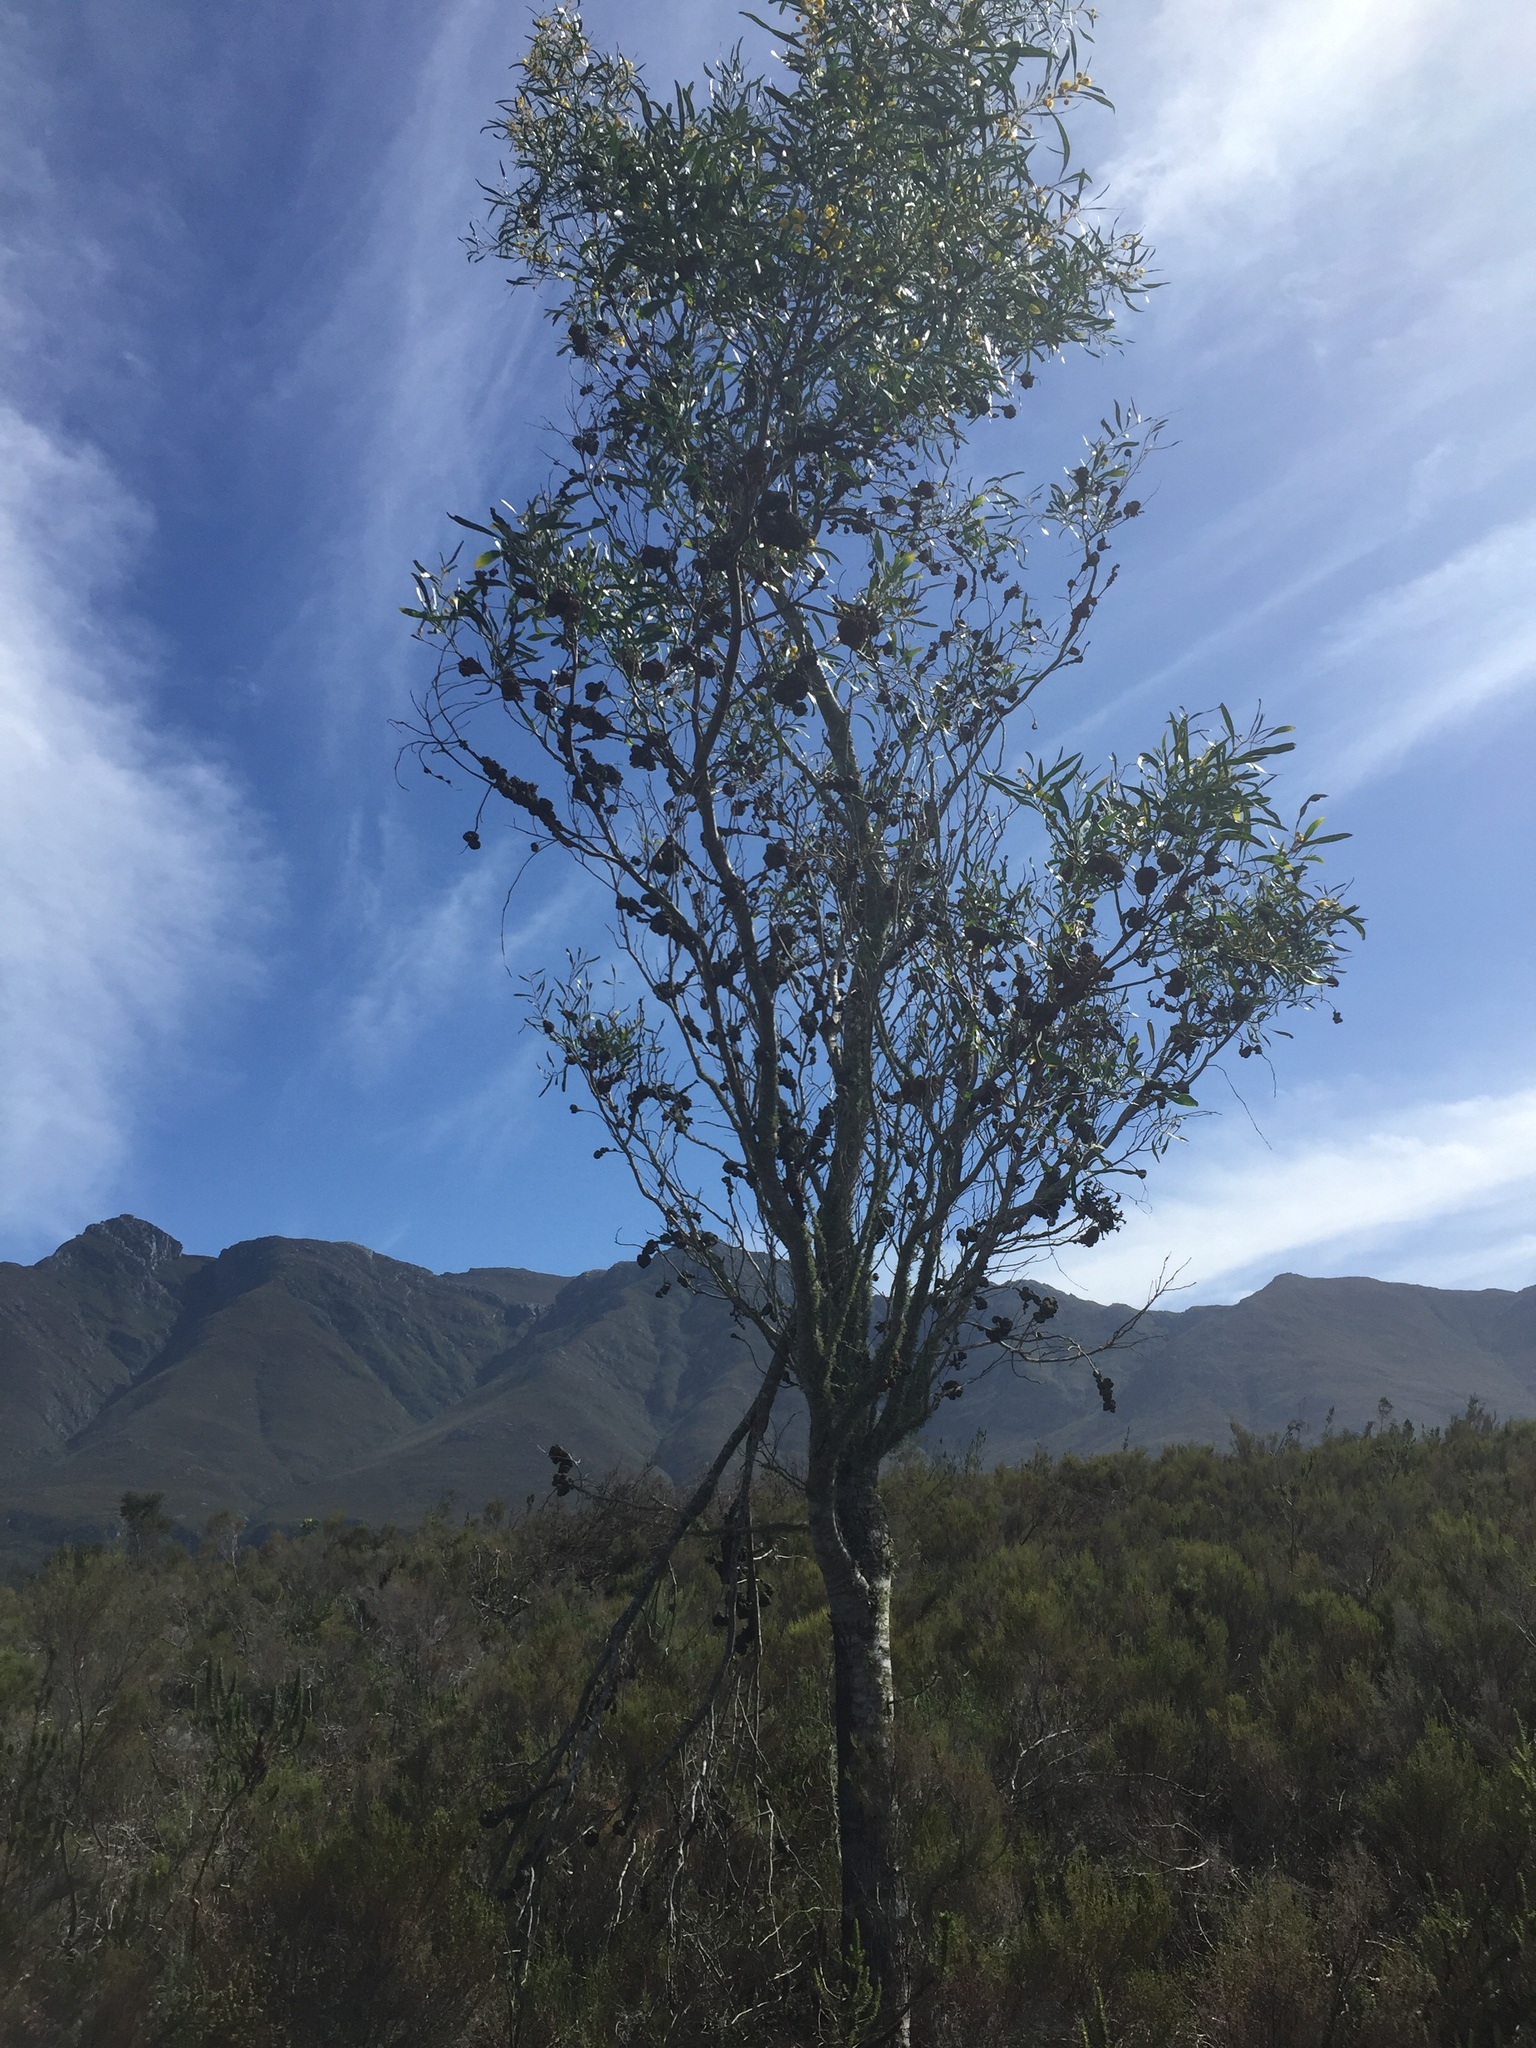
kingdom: Fungi
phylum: Basidiomycota
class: Pucciniomycetes
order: Pucciniales
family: Uromycladiaceae
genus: Uromycladium
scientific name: Uromycladium morrisii
